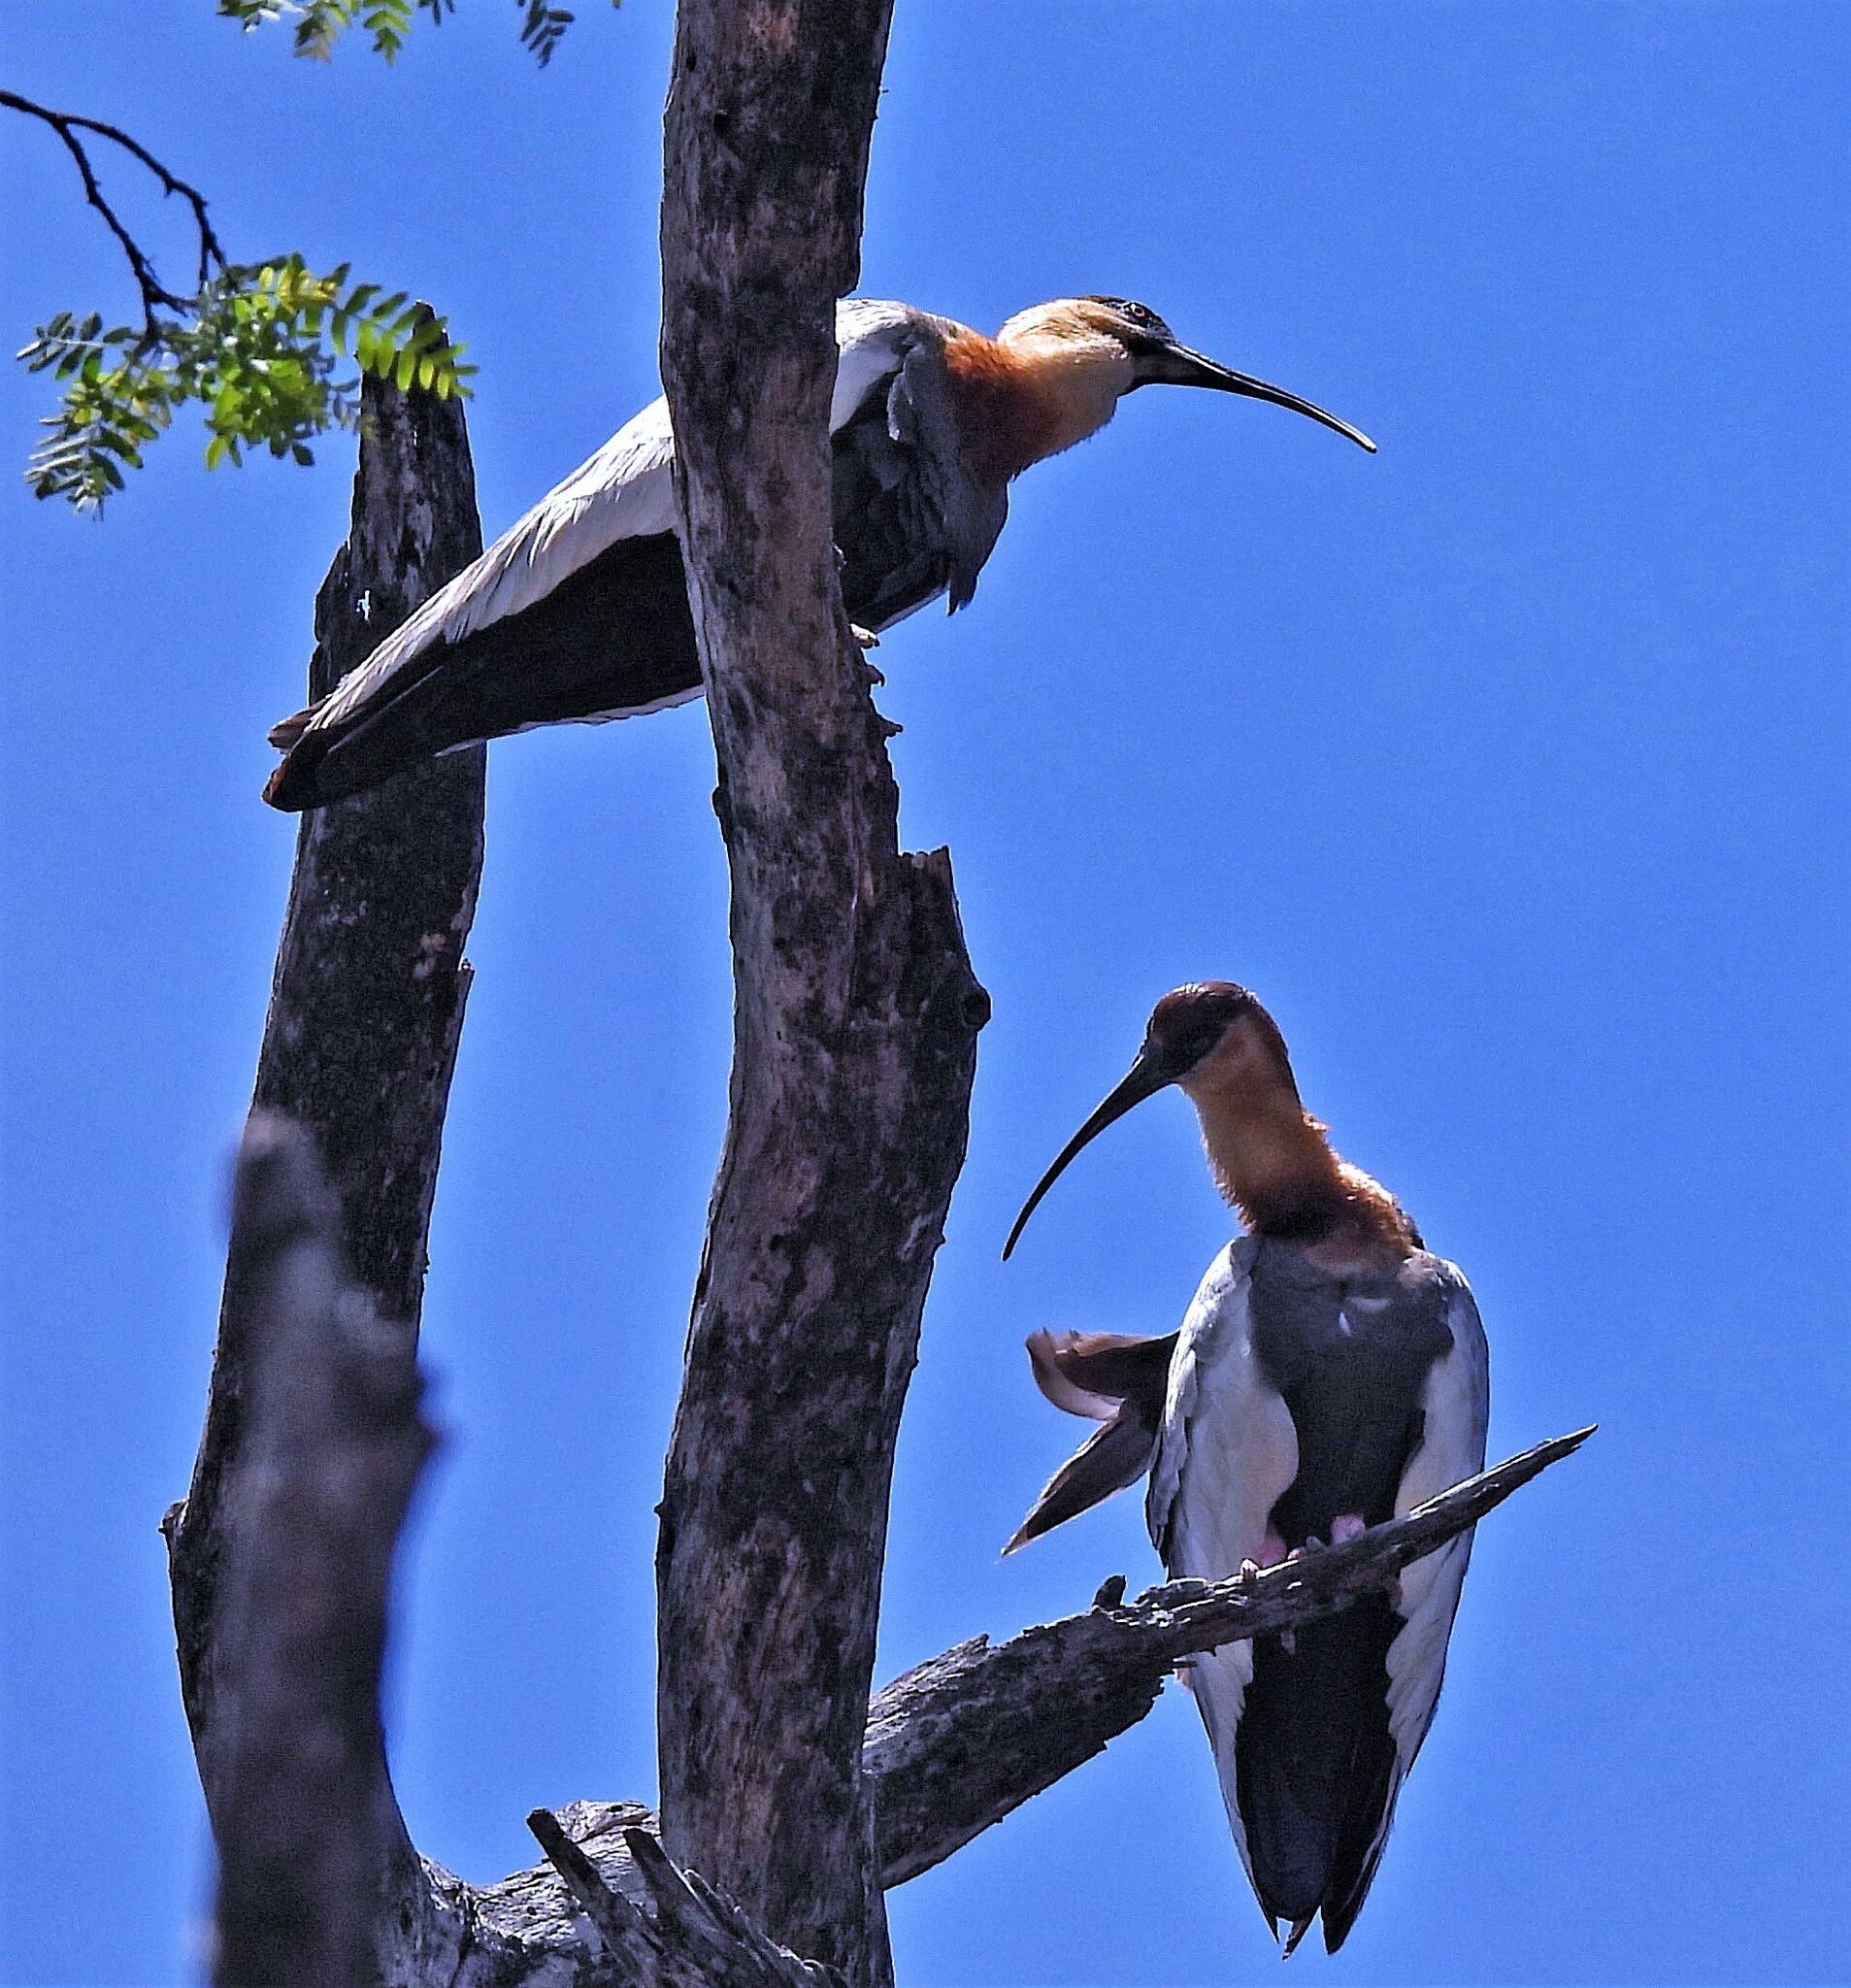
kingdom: Animalia
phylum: Chordata
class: Aves
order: Pelecaniformes
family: Threskiornithidae
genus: Theristicus
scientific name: Theristicus caudatus
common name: Buff-necked ibis
